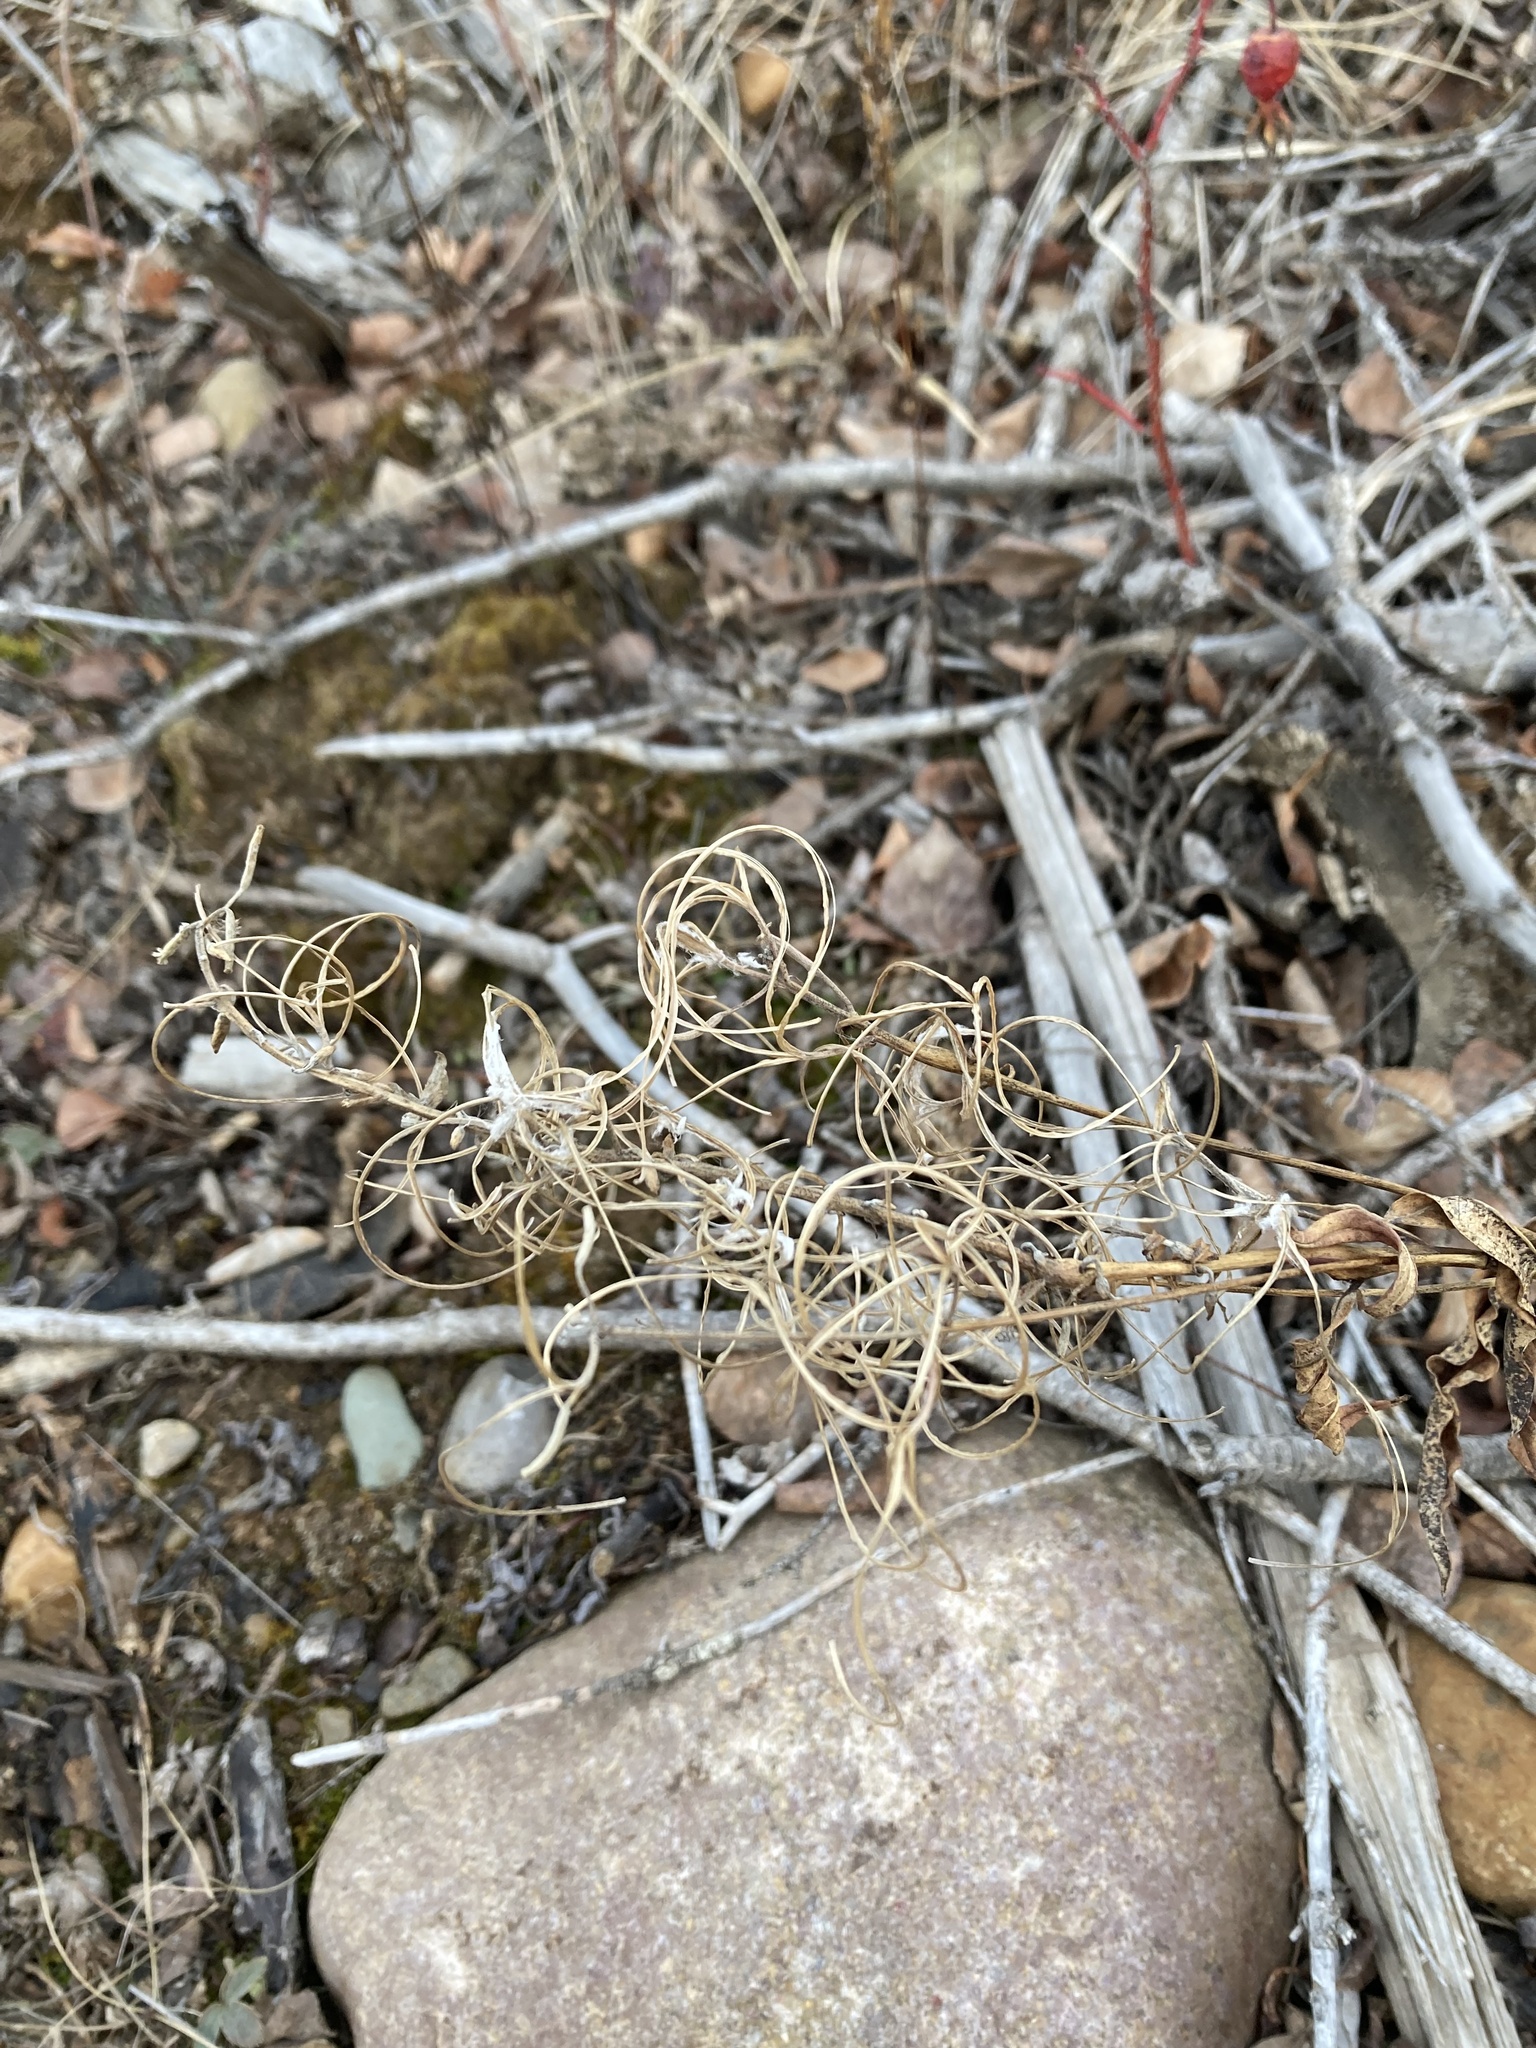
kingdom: Plantae
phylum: Tracheophyta
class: Magnoliopsida
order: Myrtales
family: Onagraceae
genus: Chamaenerion
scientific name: Chamaenerion angustifolium
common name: Fireweed
